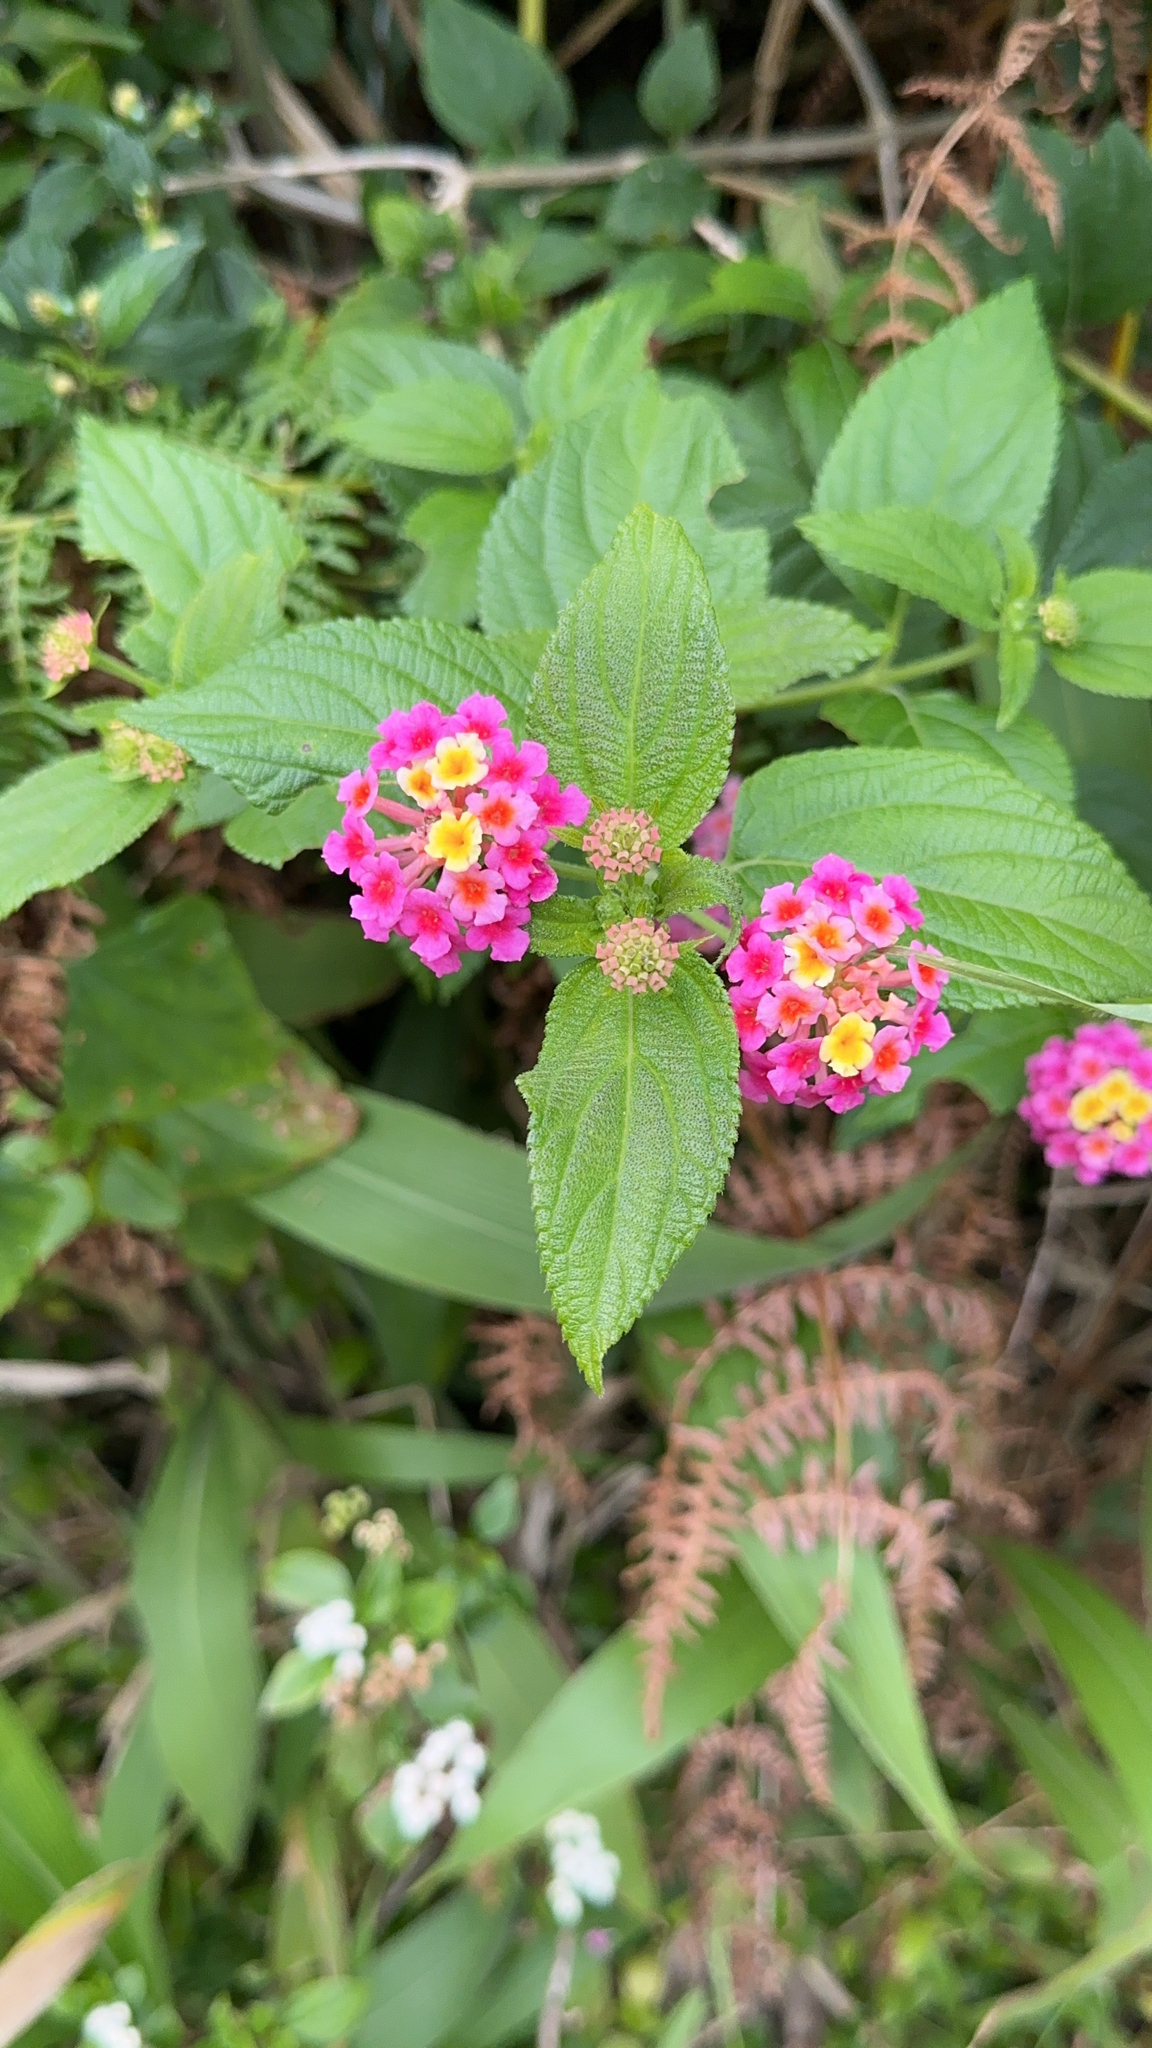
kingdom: Plantae
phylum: Tracheophyta
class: Magnoliopsida
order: Lamiales
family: Verbenaceae
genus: Lantana
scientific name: Lantana camara
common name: Lantana
